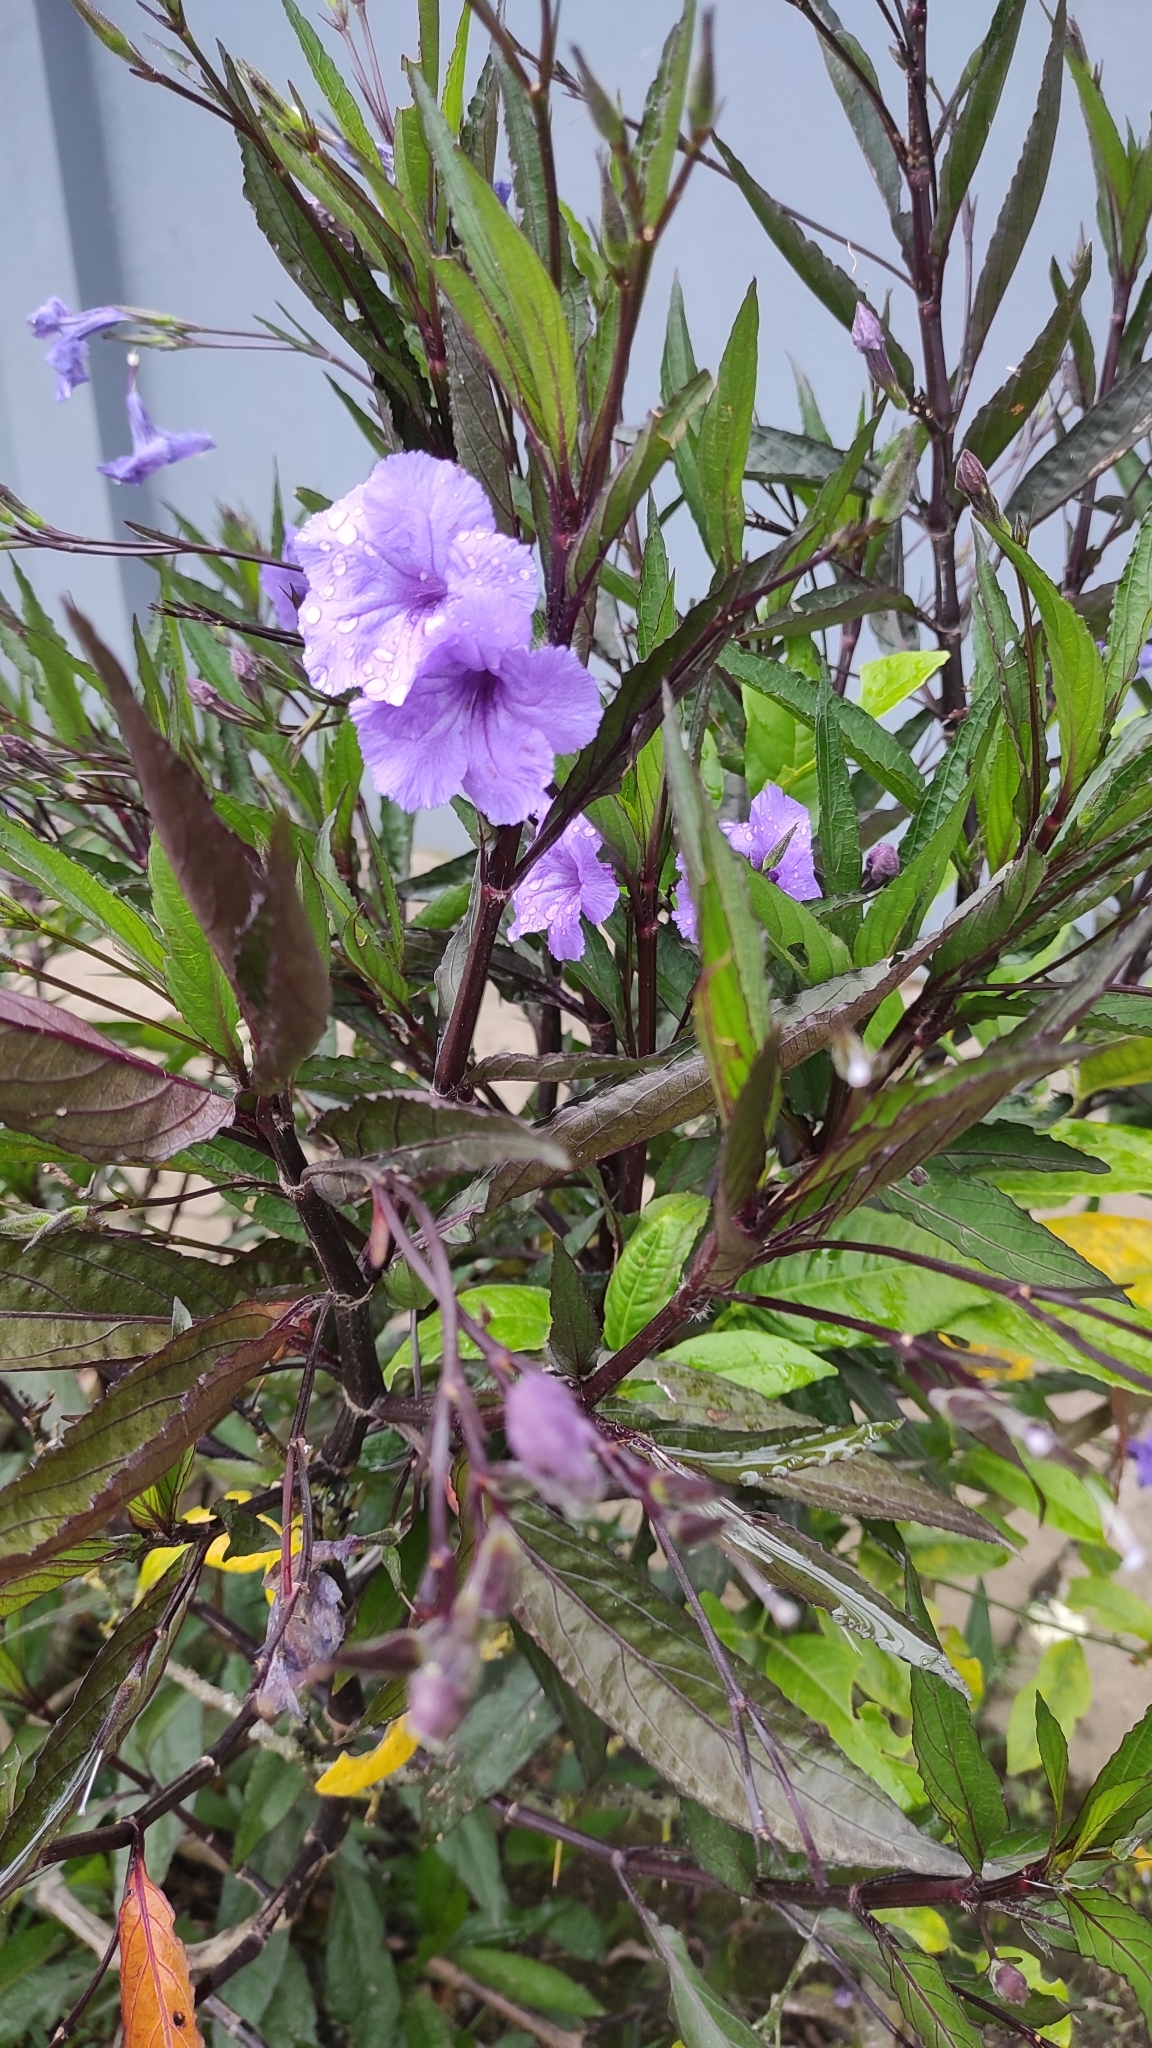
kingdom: Plantae
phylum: Tracheophyta
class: Magnoliopsida
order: Lamiales
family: Acanthaceae
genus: Ruellia
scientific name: Ruellia simplex
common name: Softseed wild petunia
